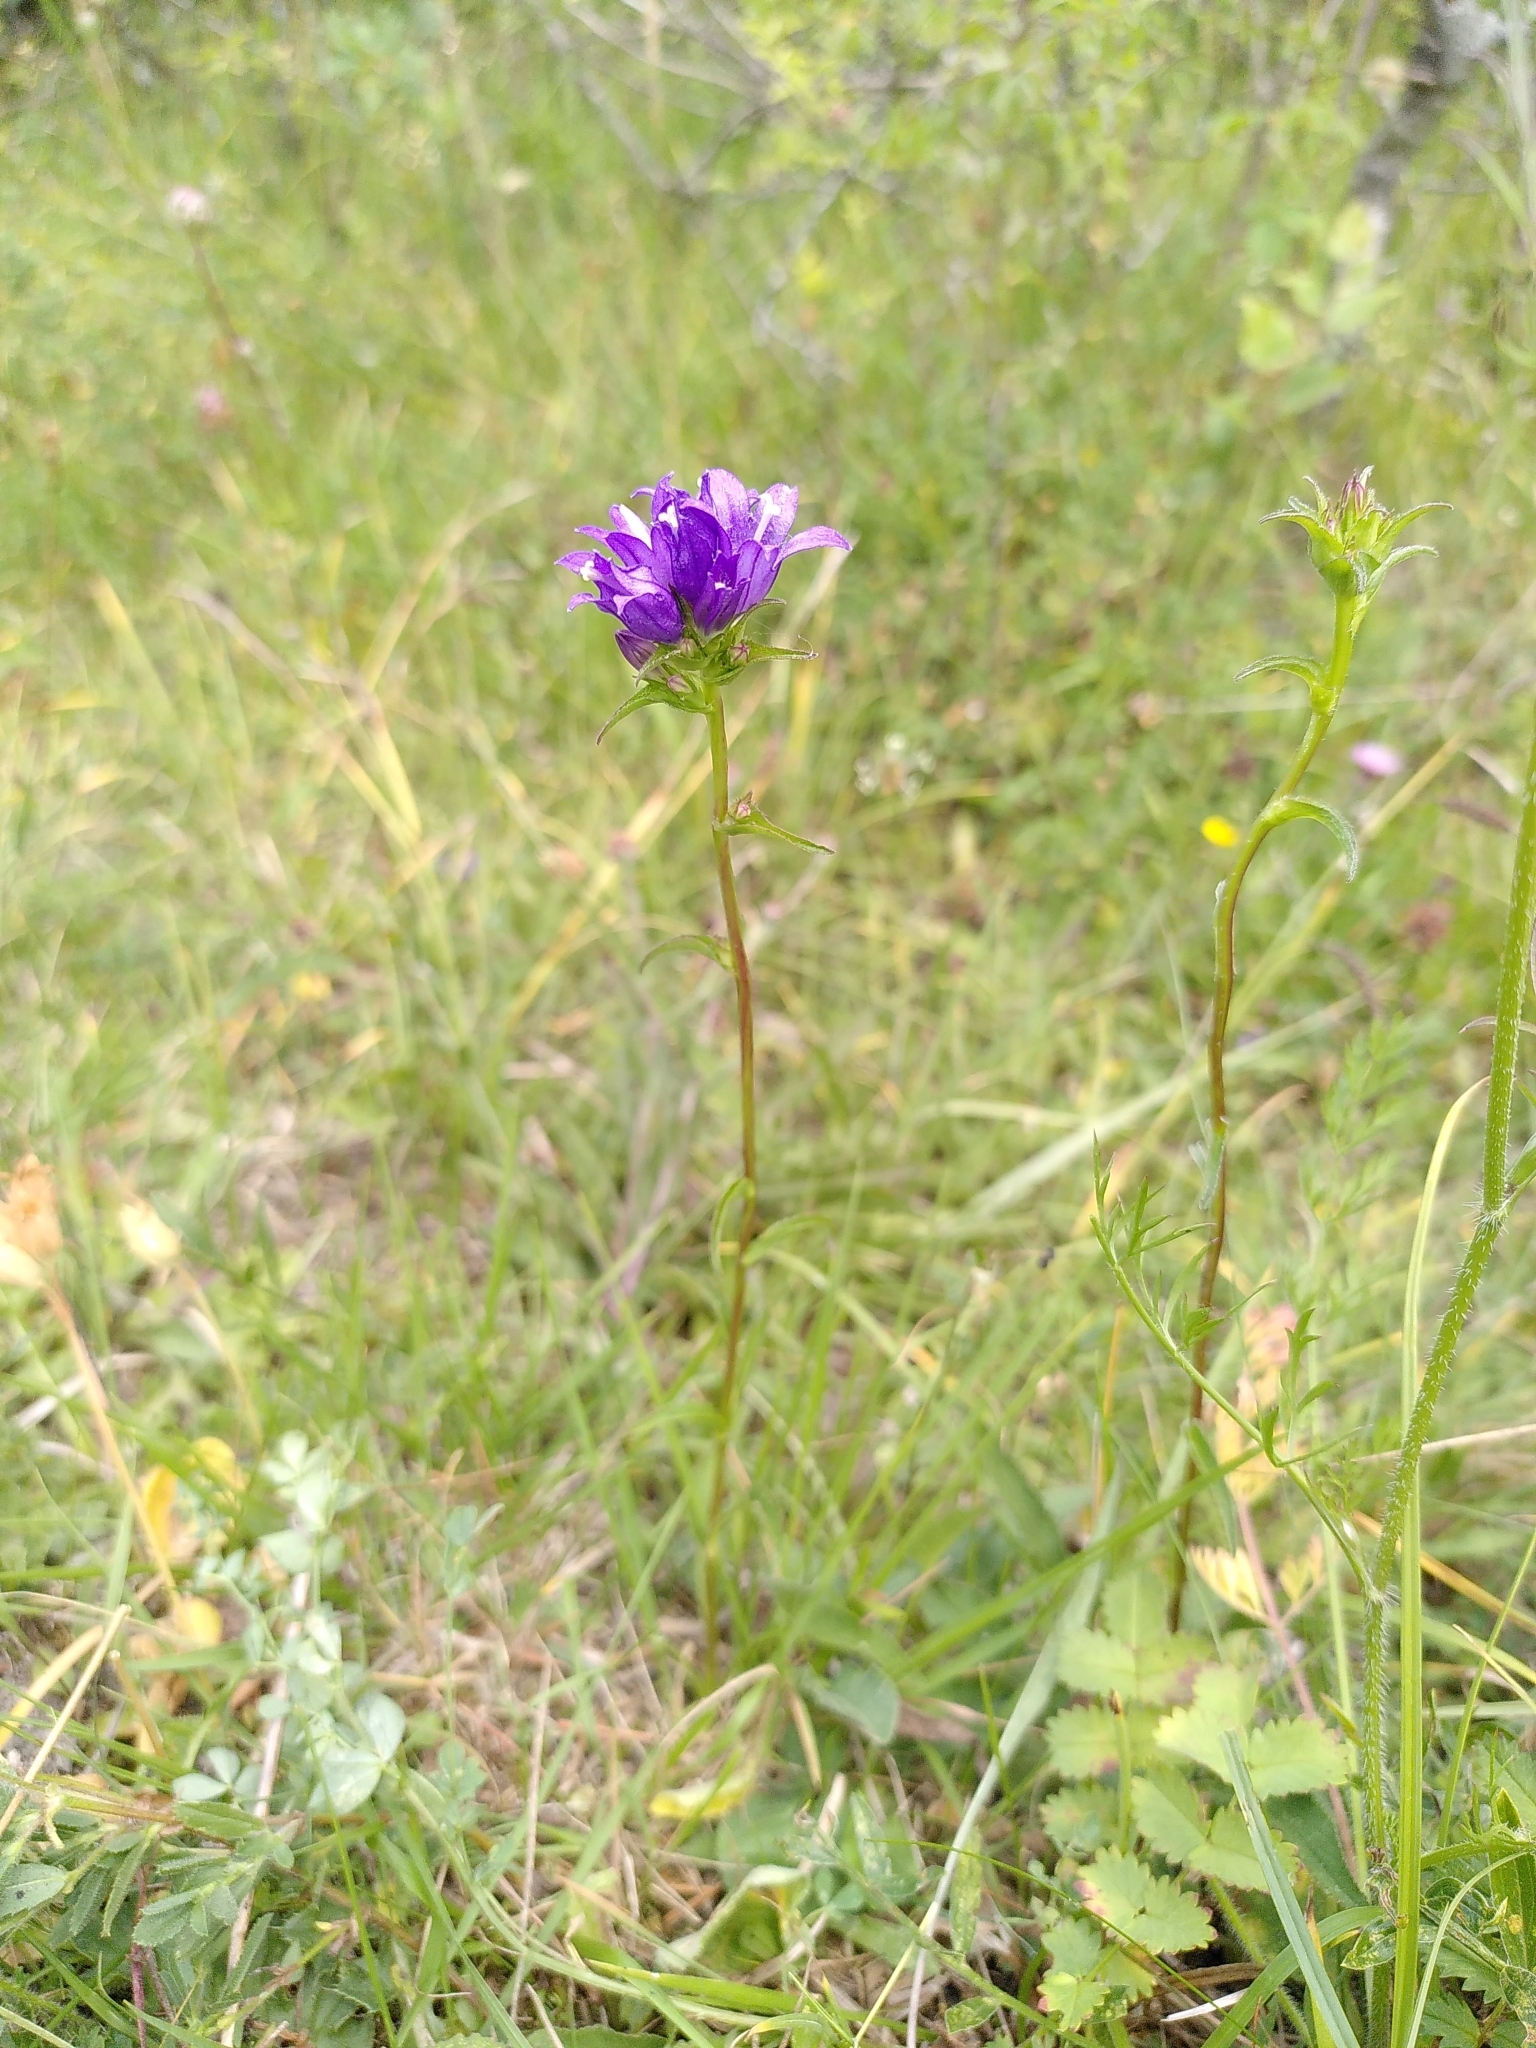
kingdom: Plantae
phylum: Tracheophyta
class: Magnoliopsida
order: Asterales
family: Campanulaceae
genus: Campanula
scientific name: Campanula glomerata
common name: Clustered bellflower
